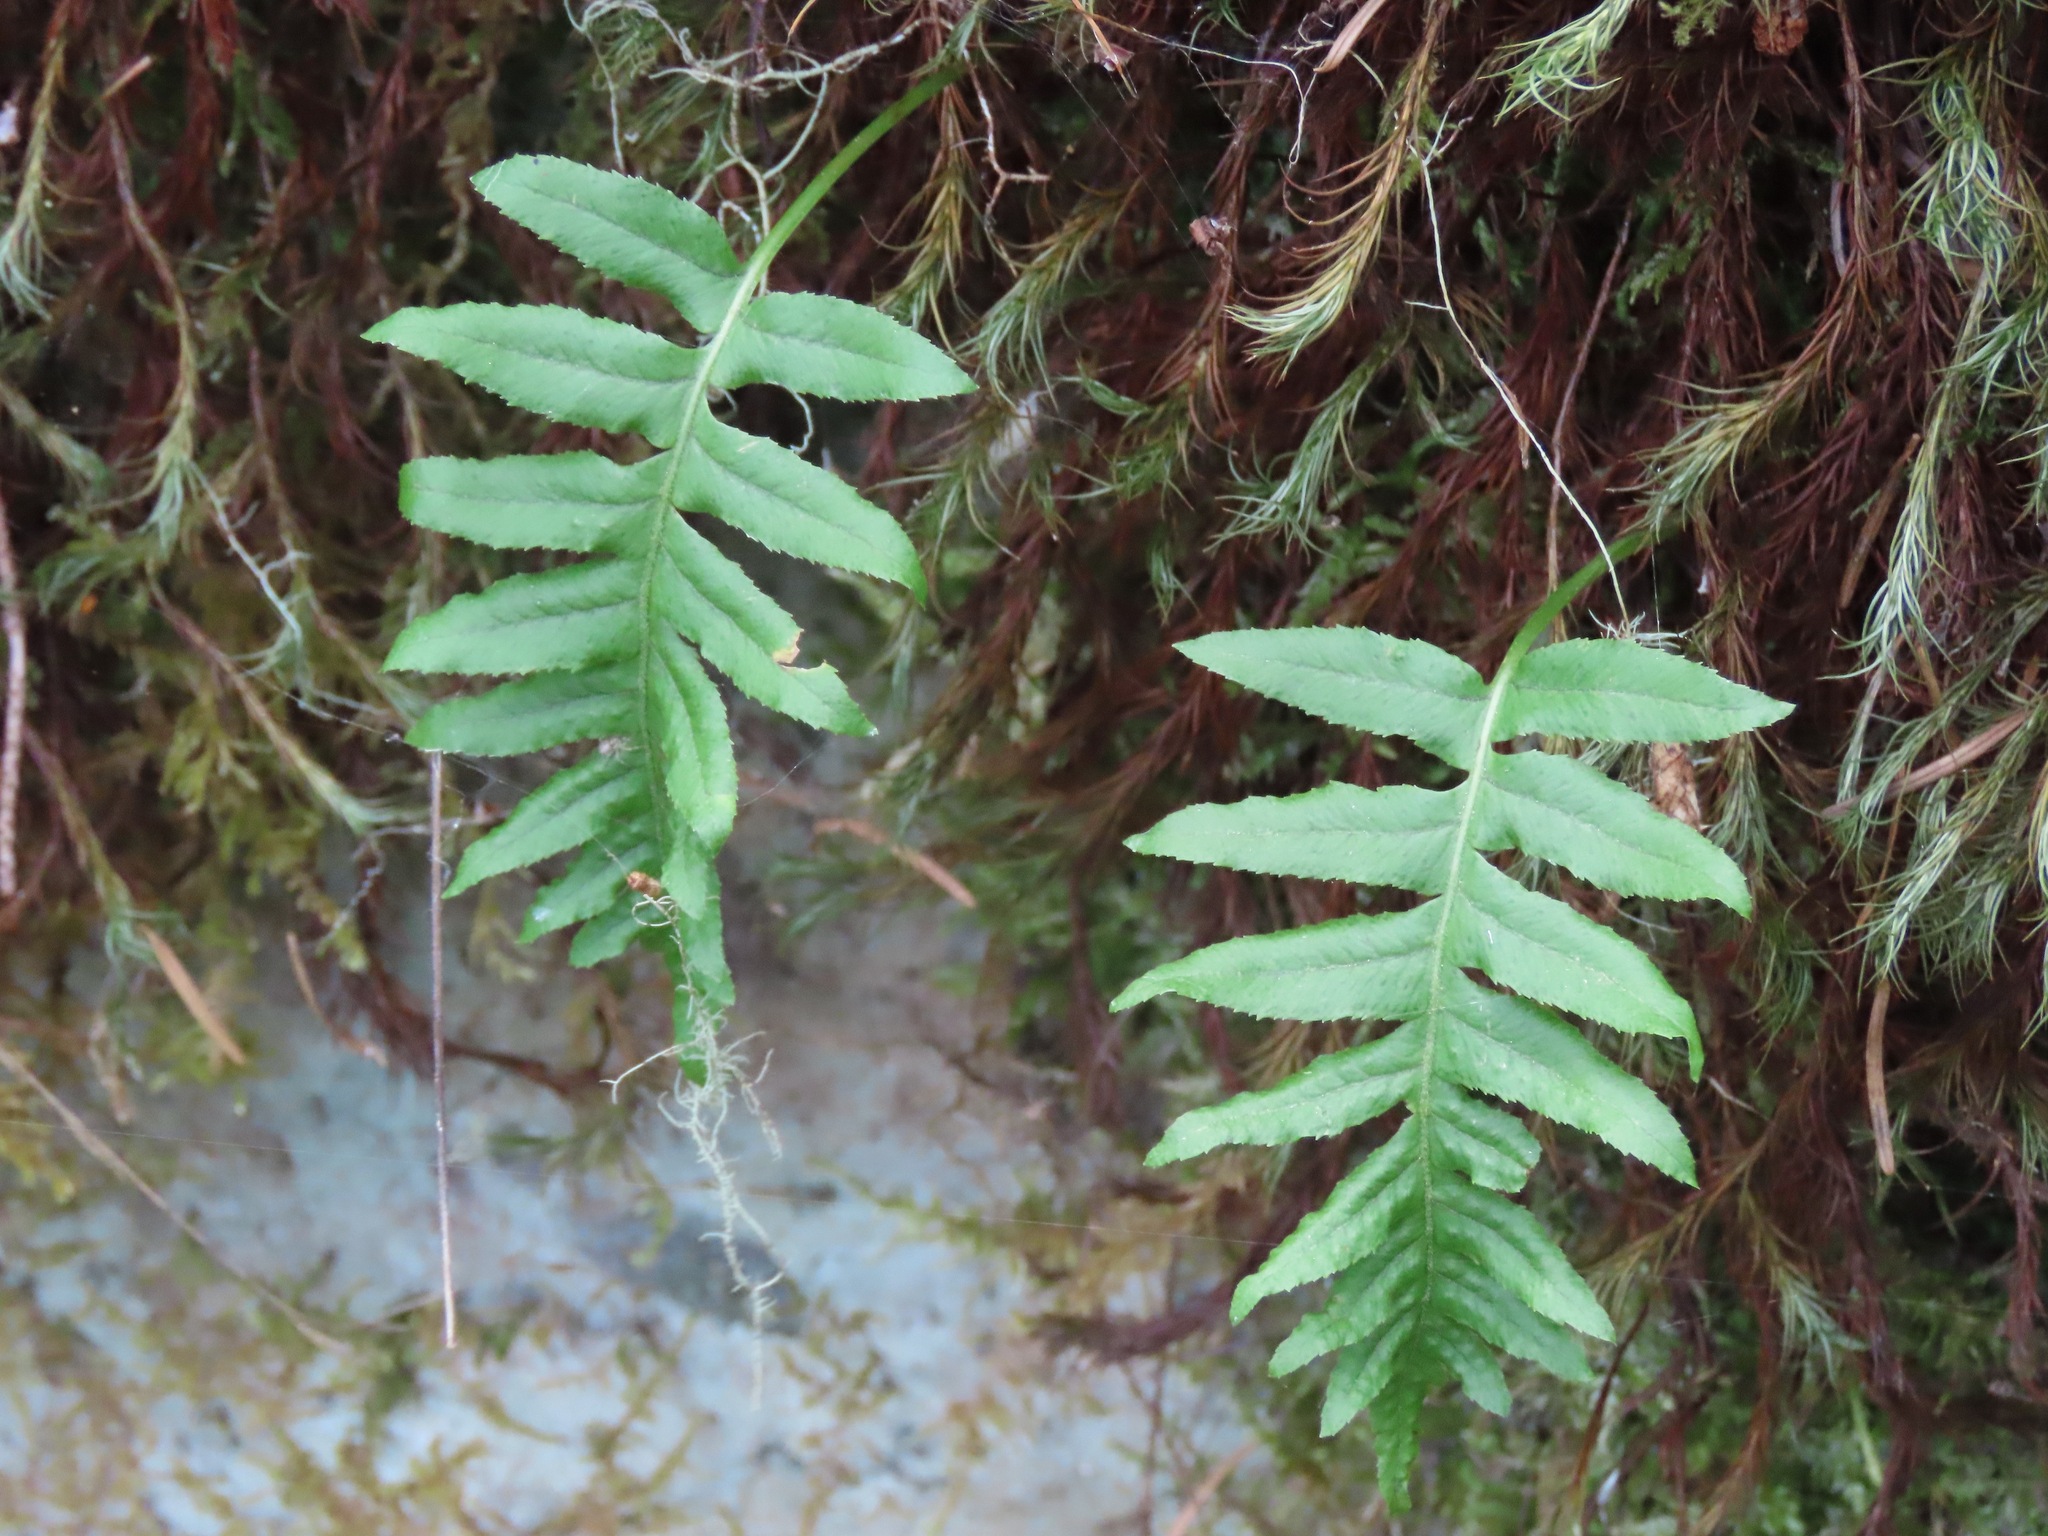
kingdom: Plantae
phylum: Tracheophyta
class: Polypodiopsida
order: Polypodiales
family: Polypodiaceae
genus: Polypodium
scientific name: Polypodium glycyrrhiza
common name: Licorice fern
